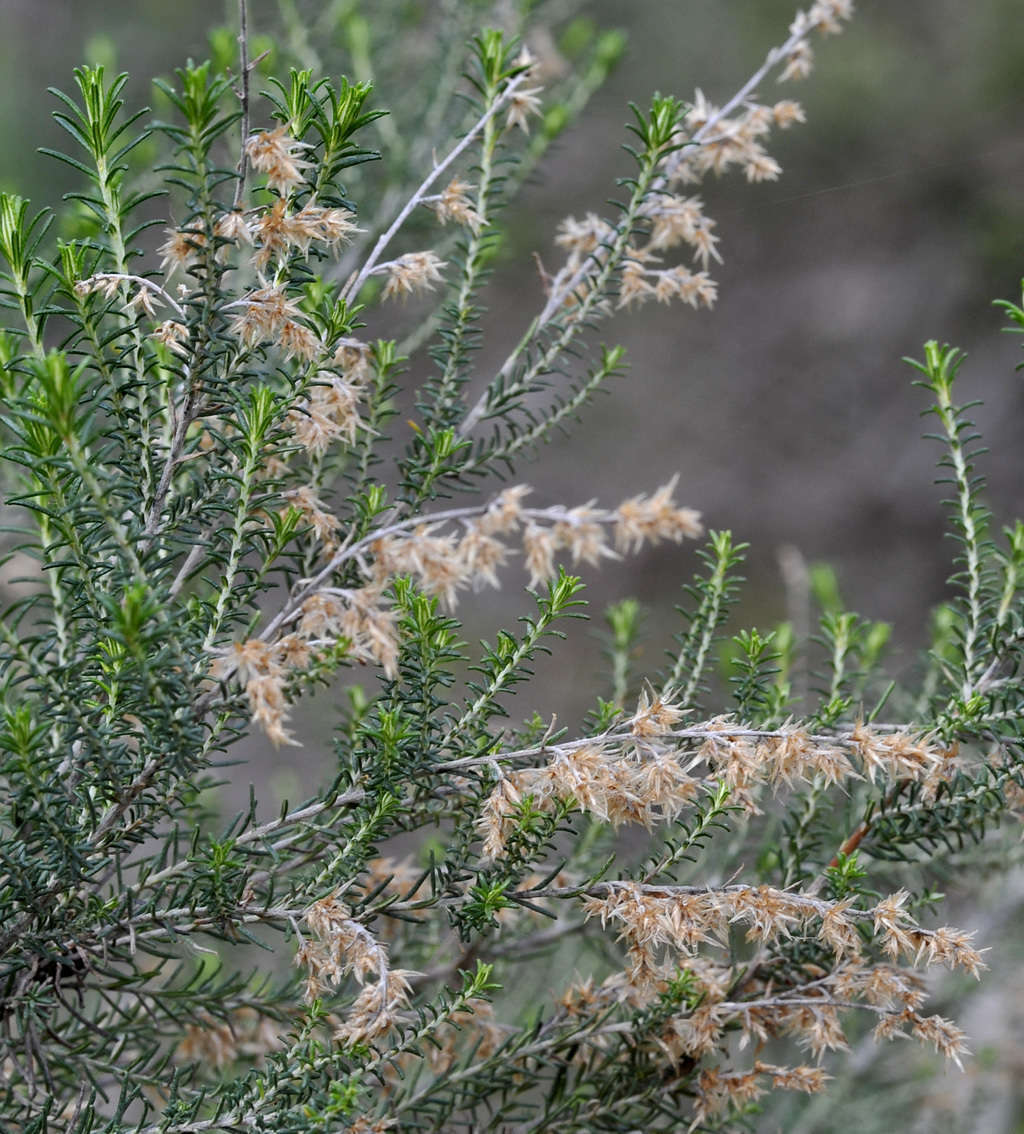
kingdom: Plantae
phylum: Tracheophyta
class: Magnoliopsida
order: Asterales
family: Asteraceae
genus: Cassinia
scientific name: Cassinia sifton
